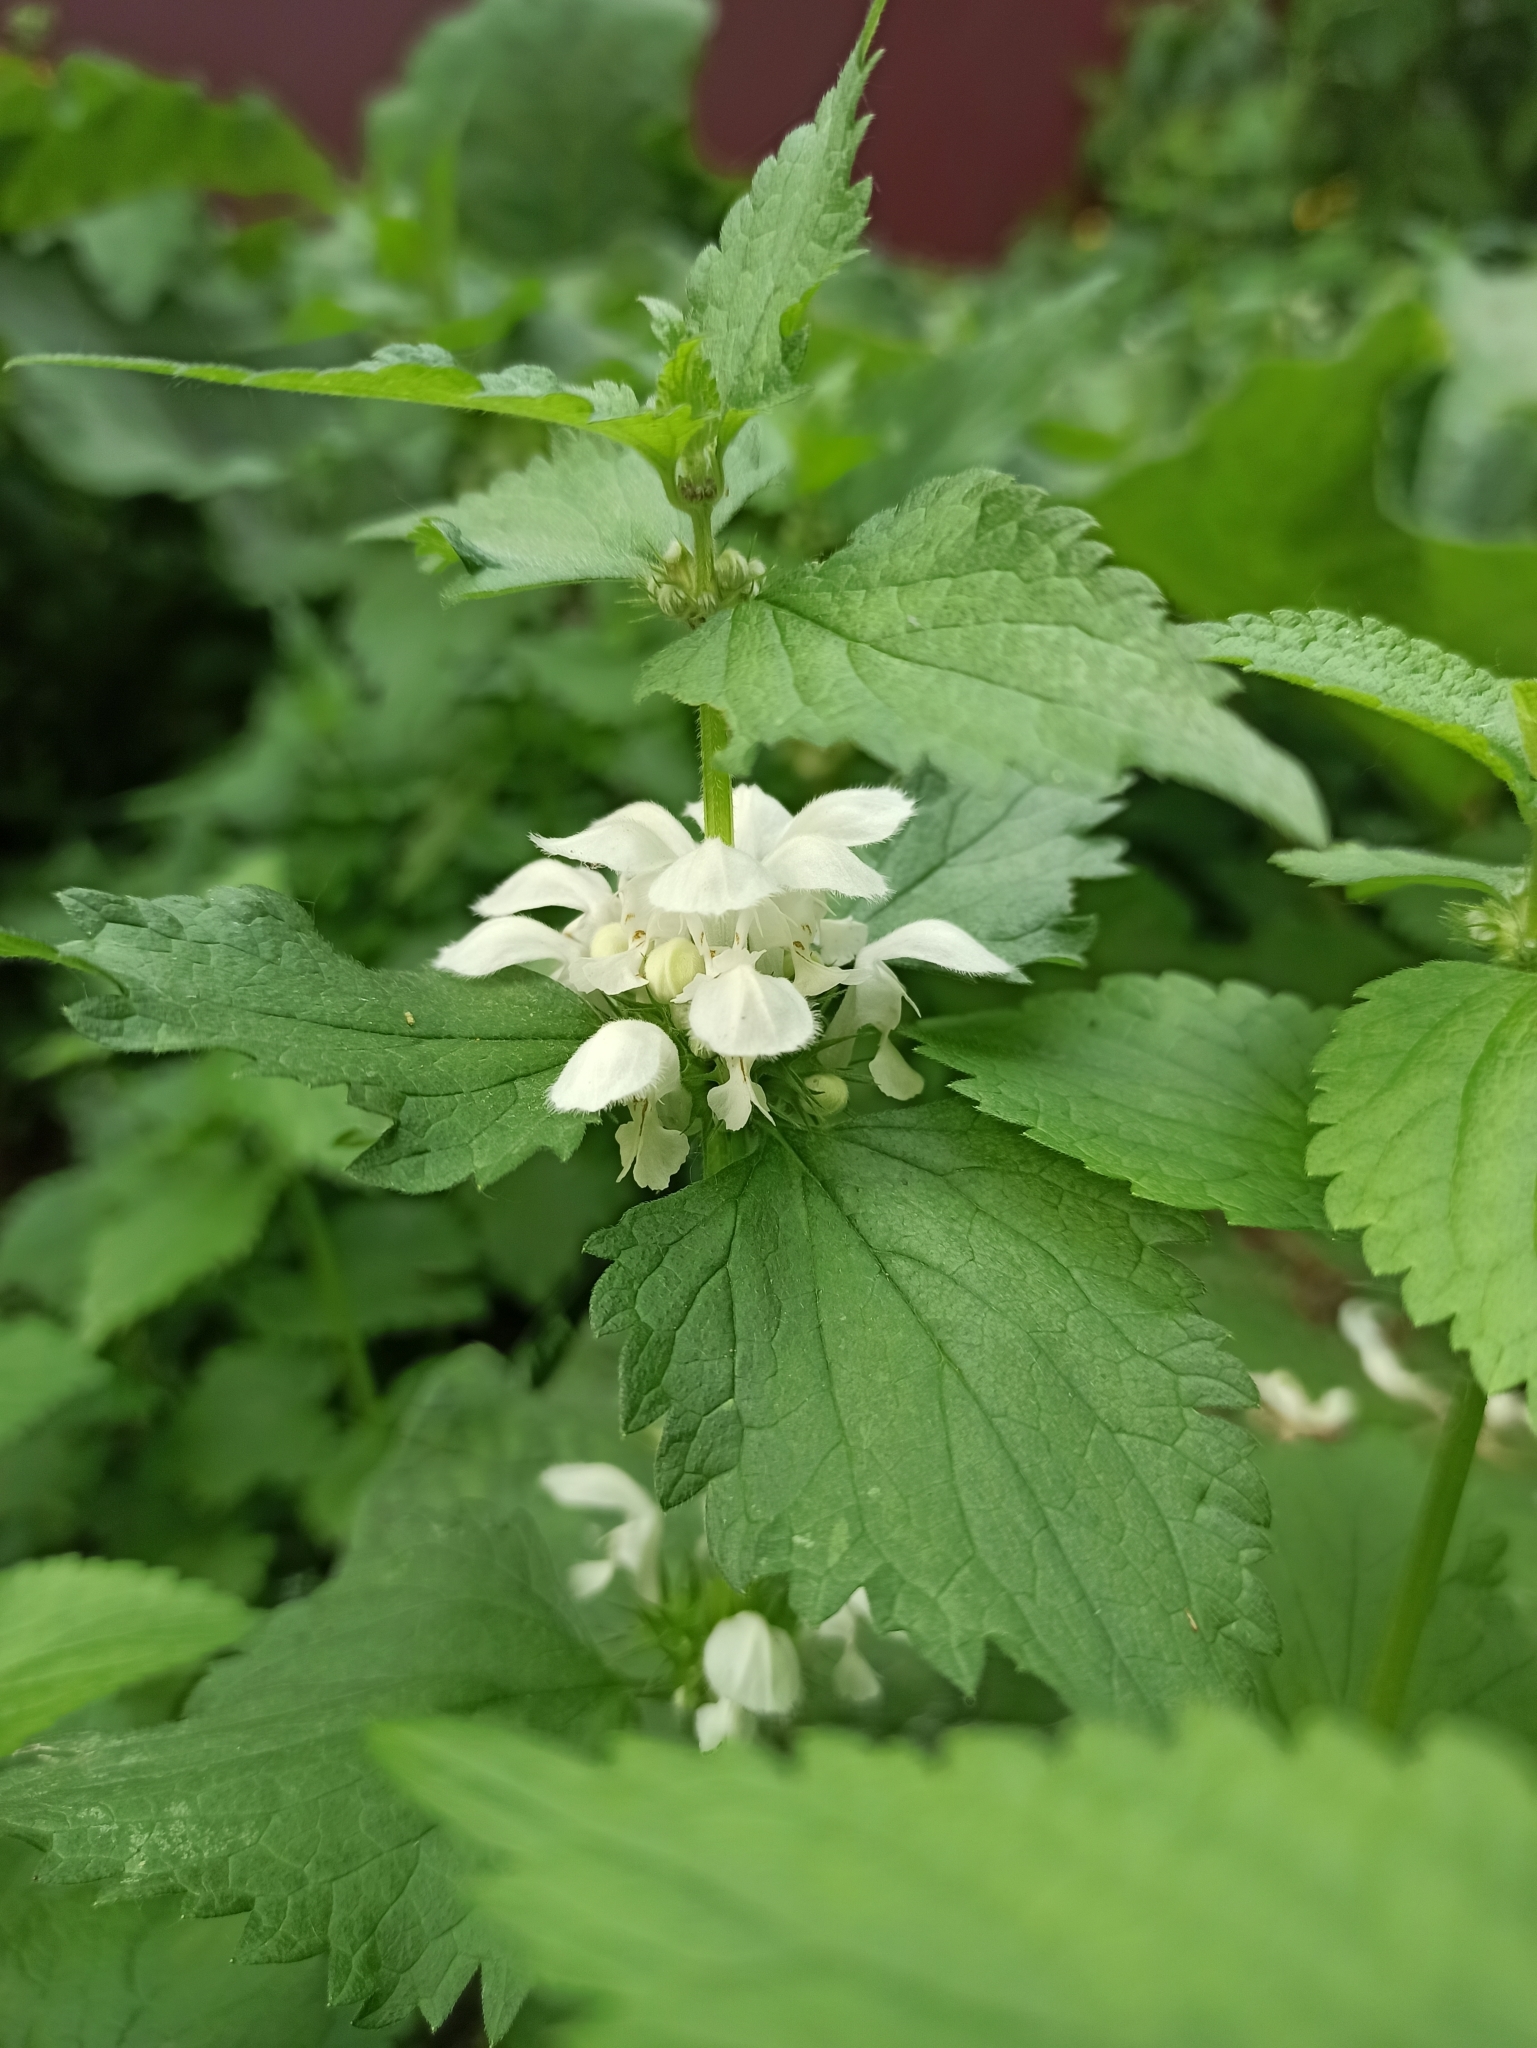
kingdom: Plantae
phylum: Tracheophyta
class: Magnoliopsida
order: Lamiales
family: Lamiaceae
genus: Lamium
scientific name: Lamium album
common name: White dead-nettle
